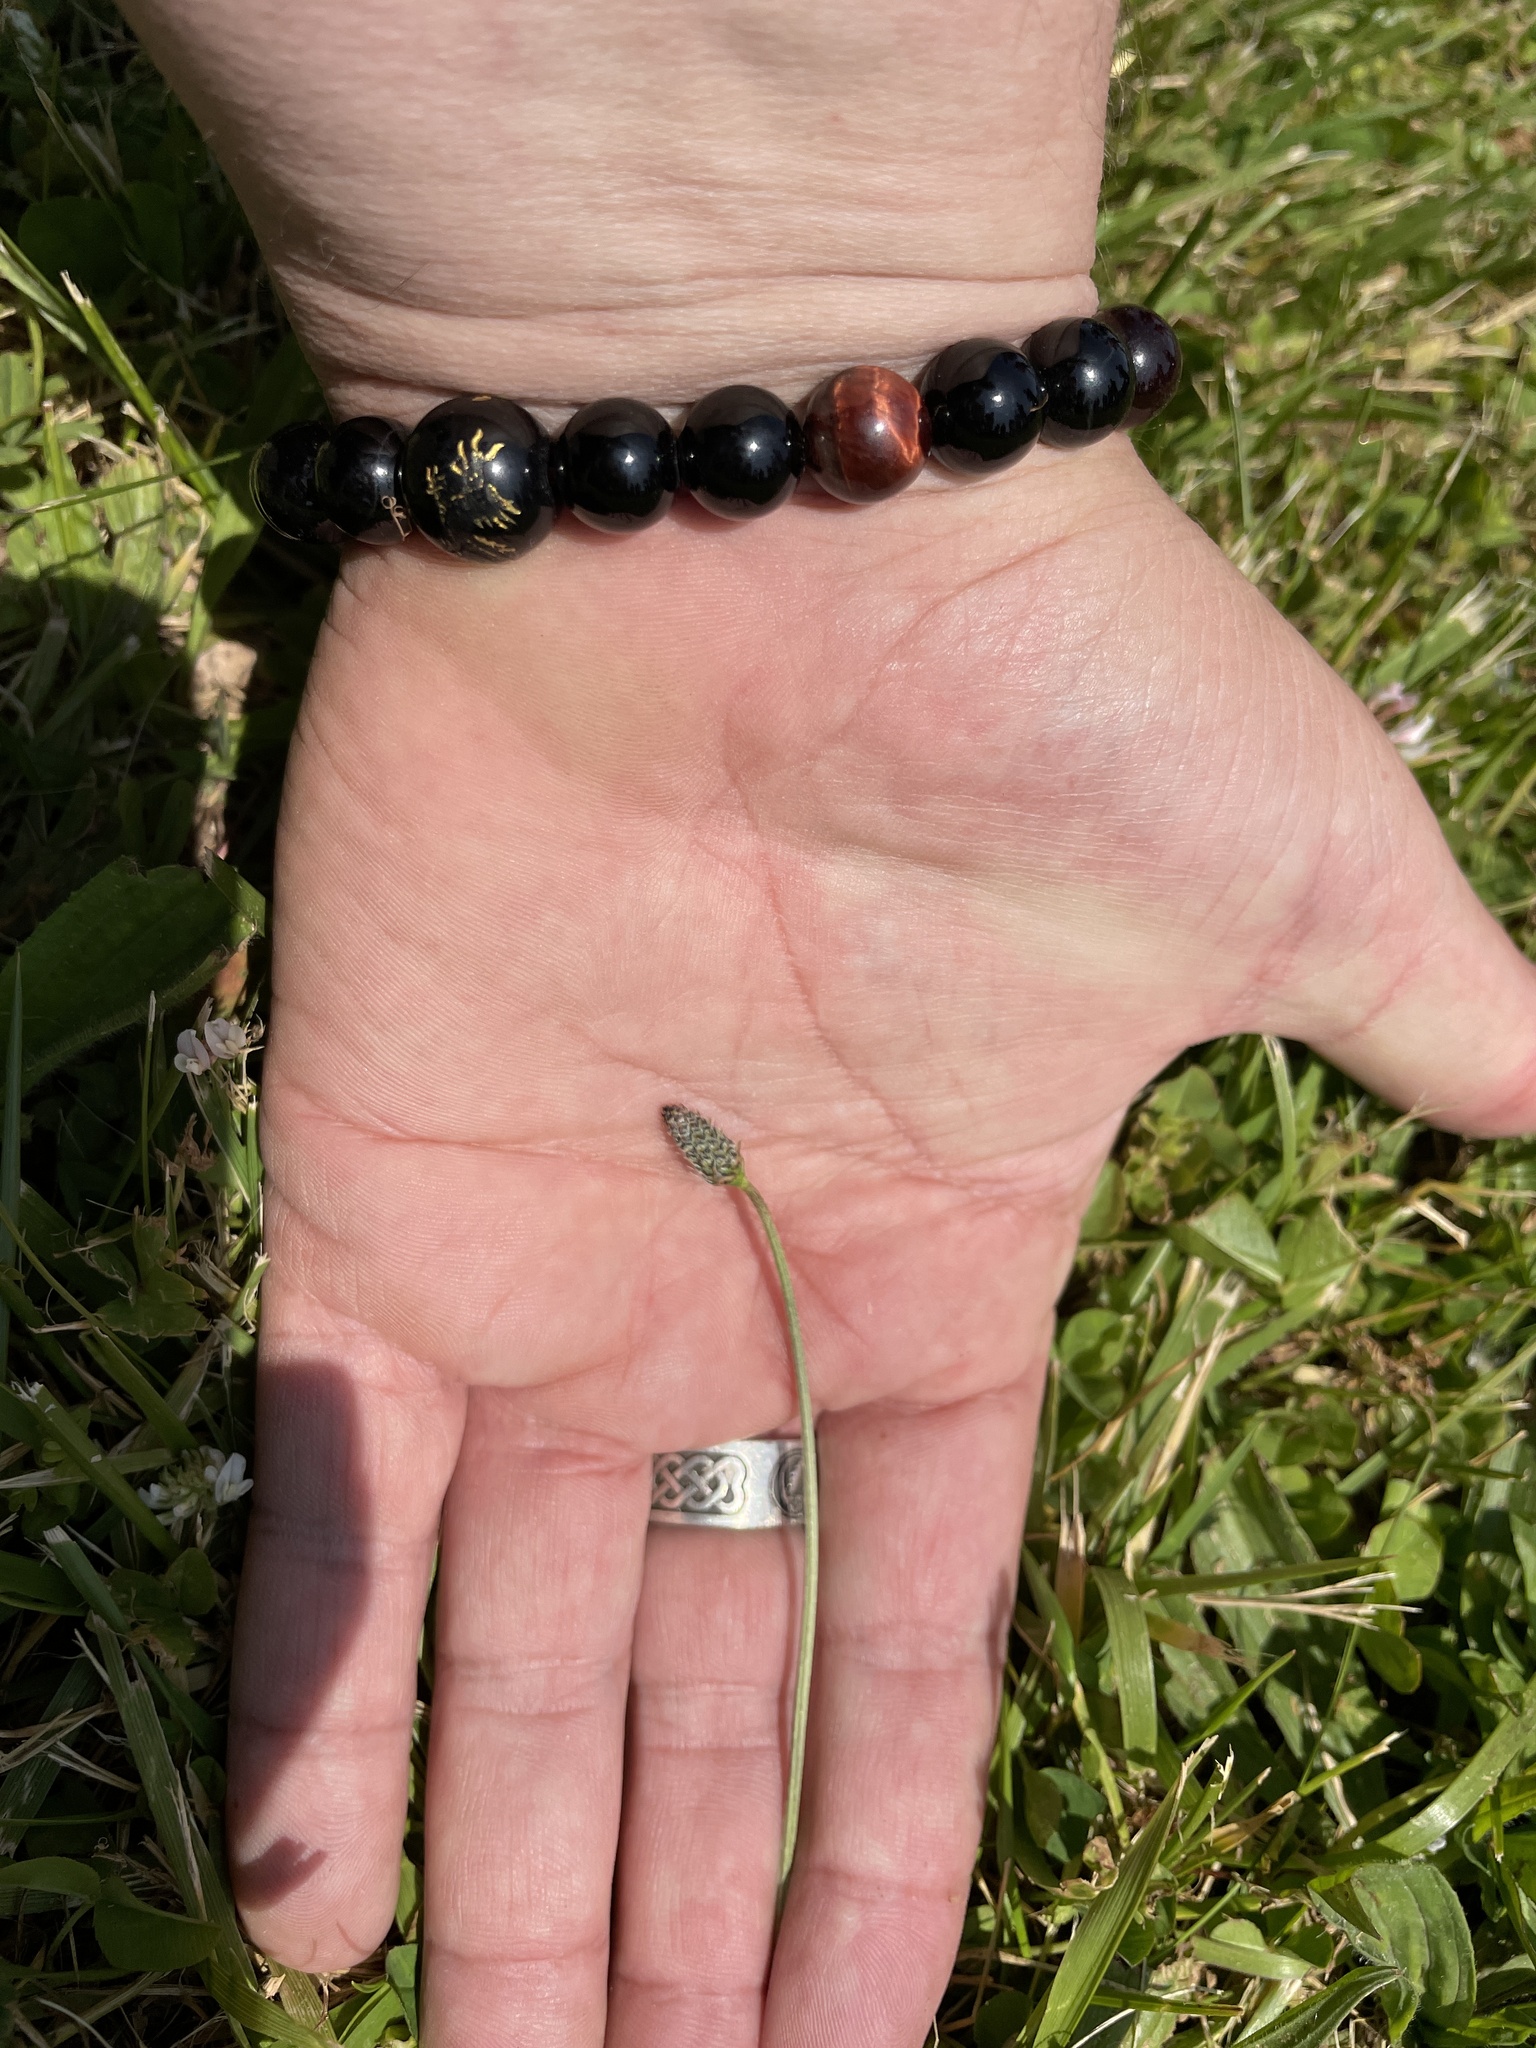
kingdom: Plantae
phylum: Tracheophyta
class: Magnoliopsida
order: Lamiales
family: Plantaginaceae
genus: Plantago
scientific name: Plantago lanceolata
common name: Ribwort plantain
